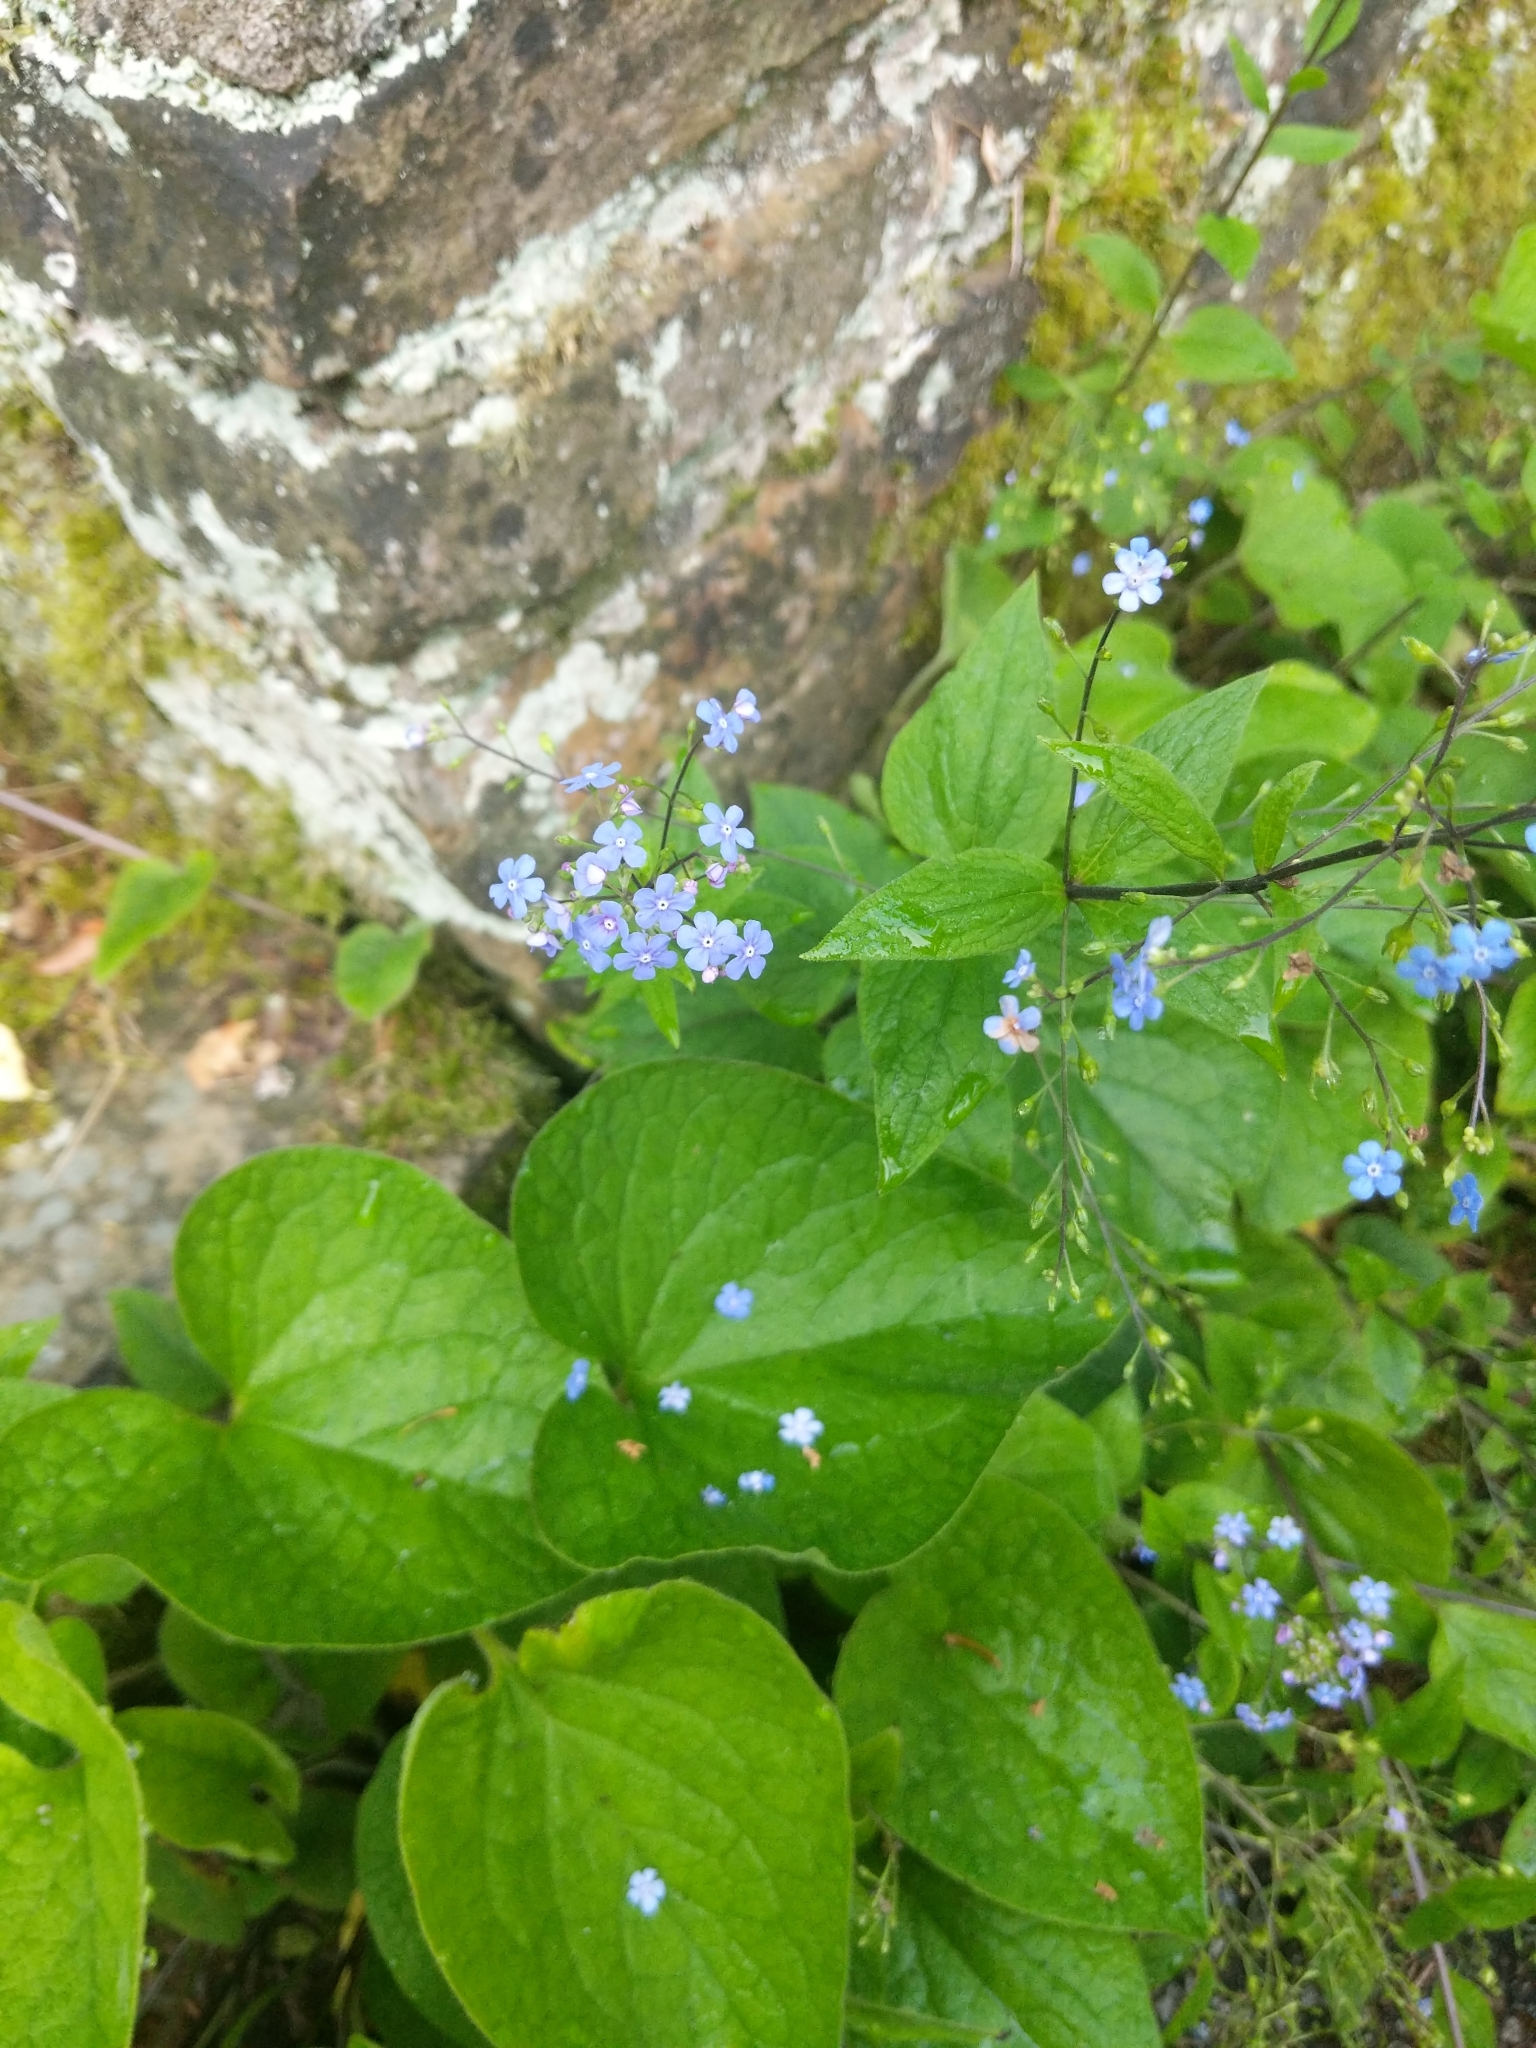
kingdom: Plantae
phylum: Tracheophyta
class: Magnoliopsida
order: Boraginales
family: Boraginaceae
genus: Brunnera
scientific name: Brunnera macrophylla
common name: Great forget-me-not
